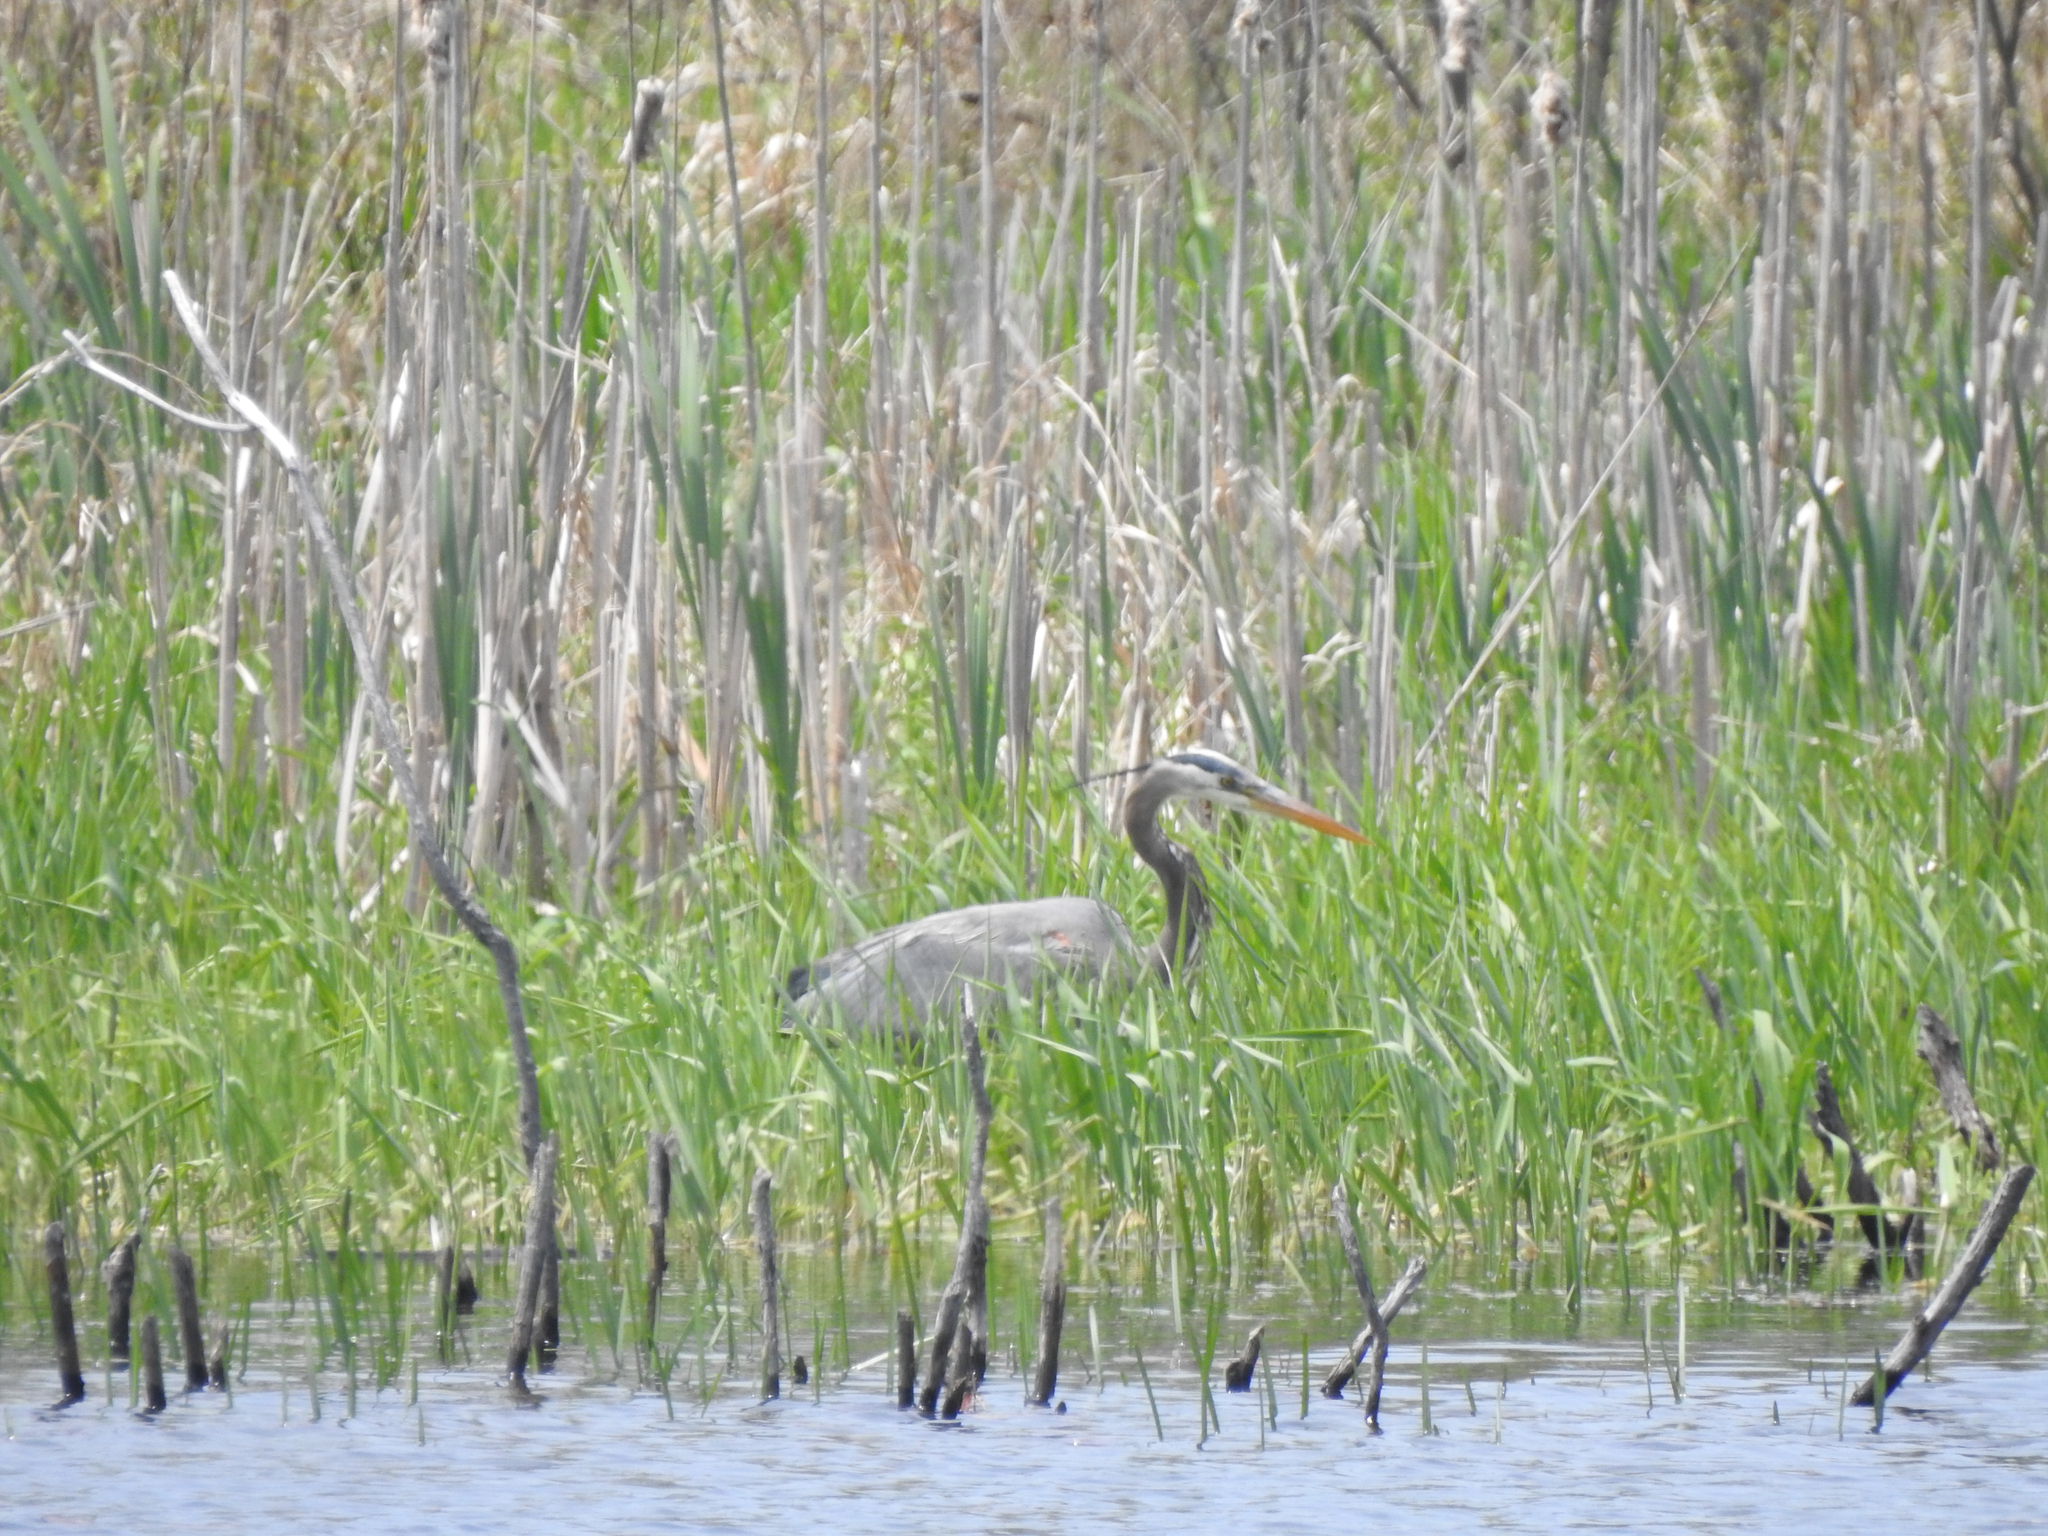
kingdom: Animalia
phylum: Chordata
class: Aves
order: Pelecaniformes
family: Ardeidae
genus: Ardea
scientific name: Ardea herodias
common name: Great blue heron
